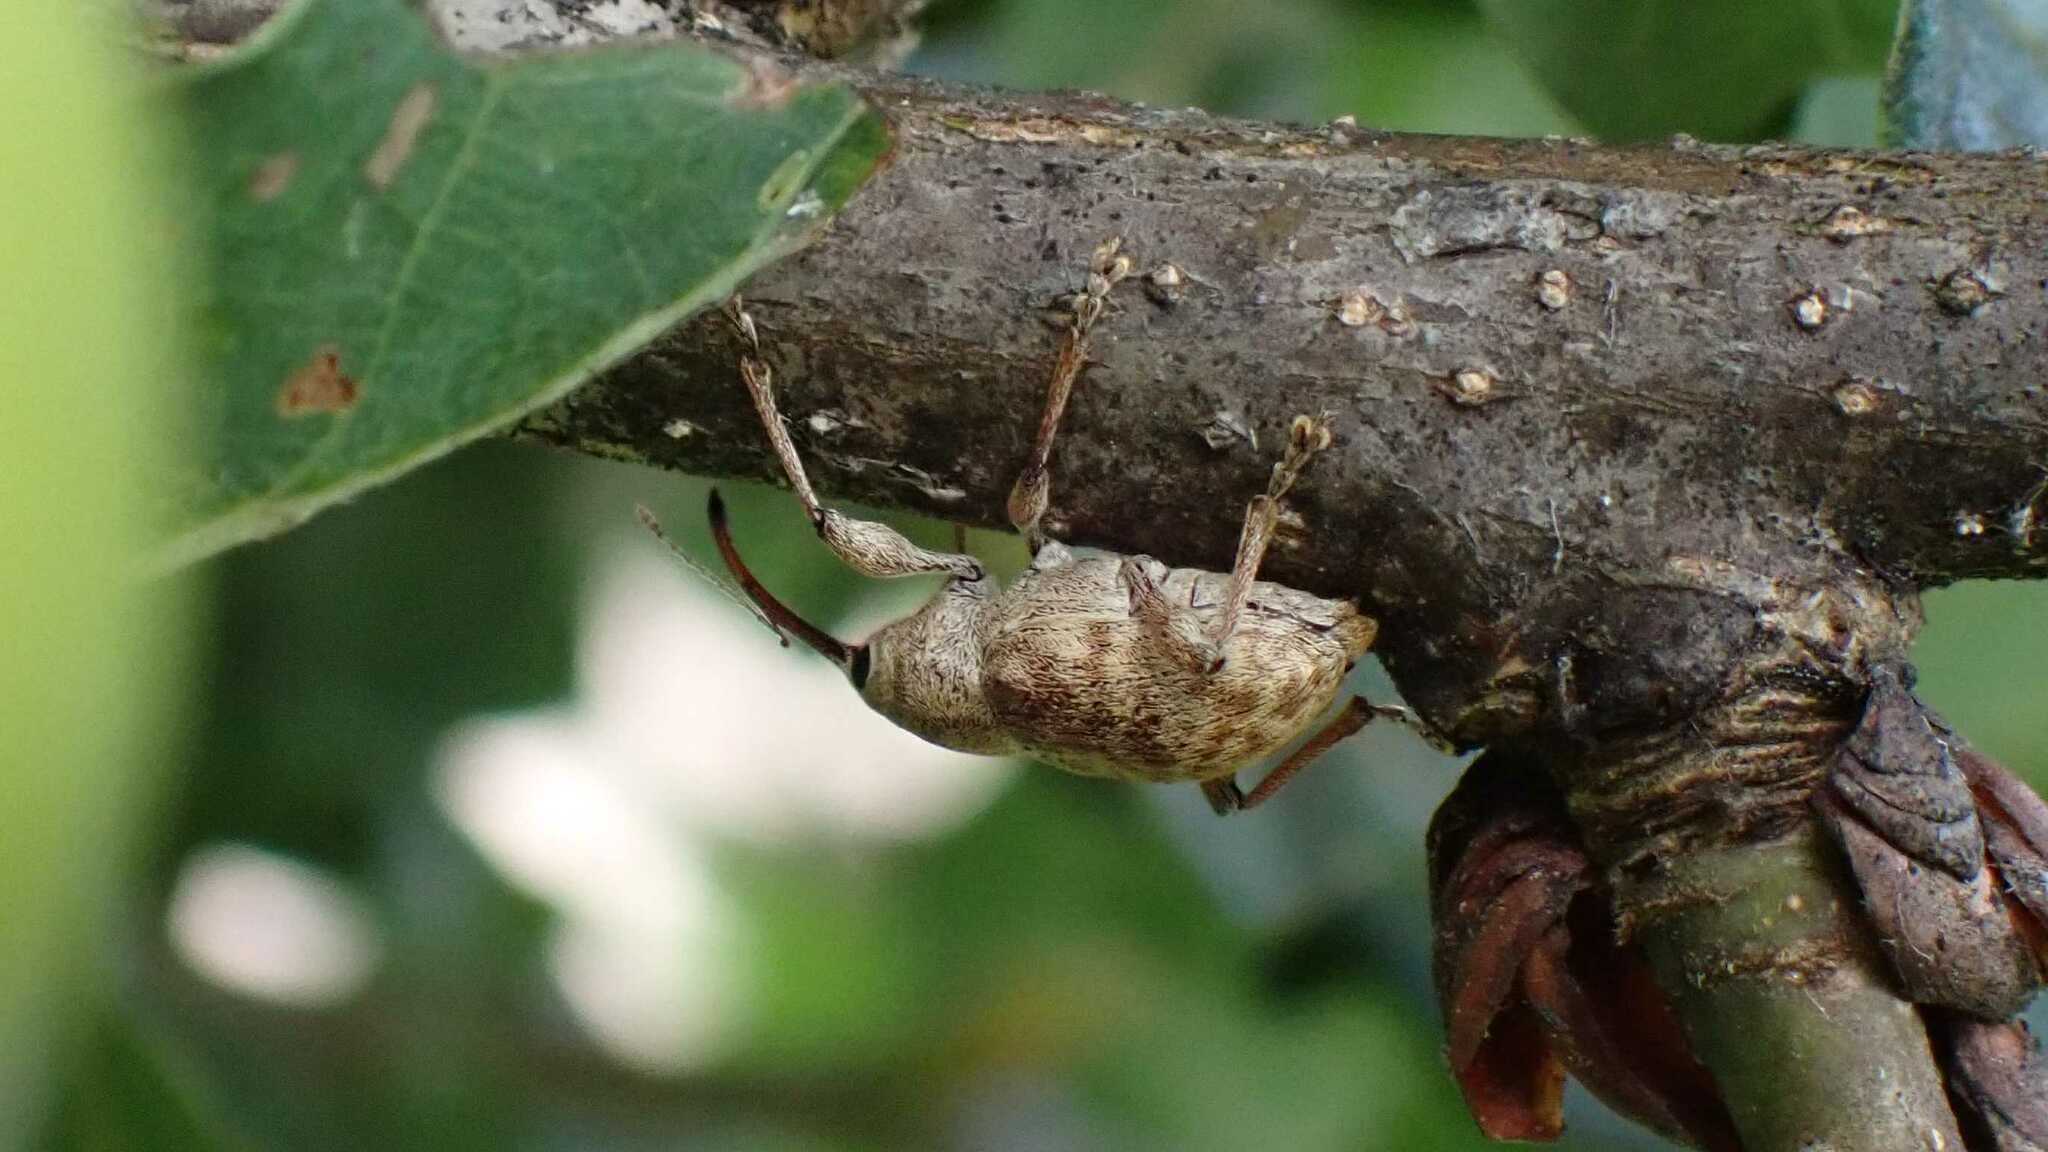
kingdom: Animalia
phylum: Arthropoda
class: Insecta
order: Coleoptera
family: Curculionidae
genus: Curculio
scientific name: Curculio elephas
